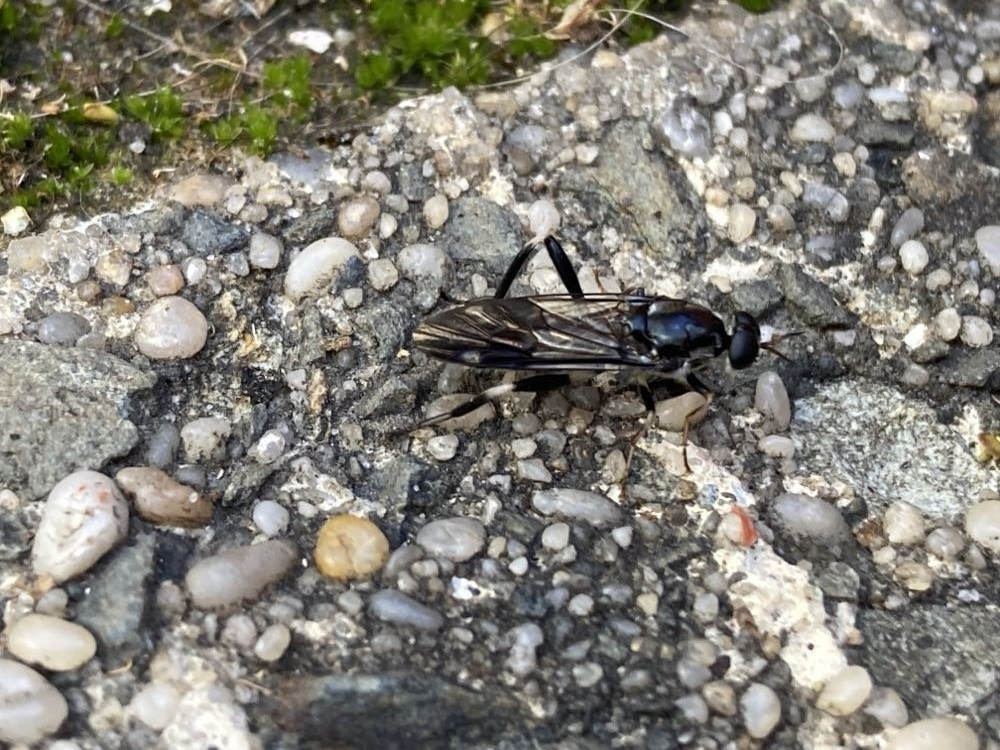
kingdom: Animalia
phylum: Arthropoda
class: Insecta
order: Diptera
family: Stratiomyidae
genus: Exaireta
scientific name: Exaireta spinigera
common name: Blue soldier fly
